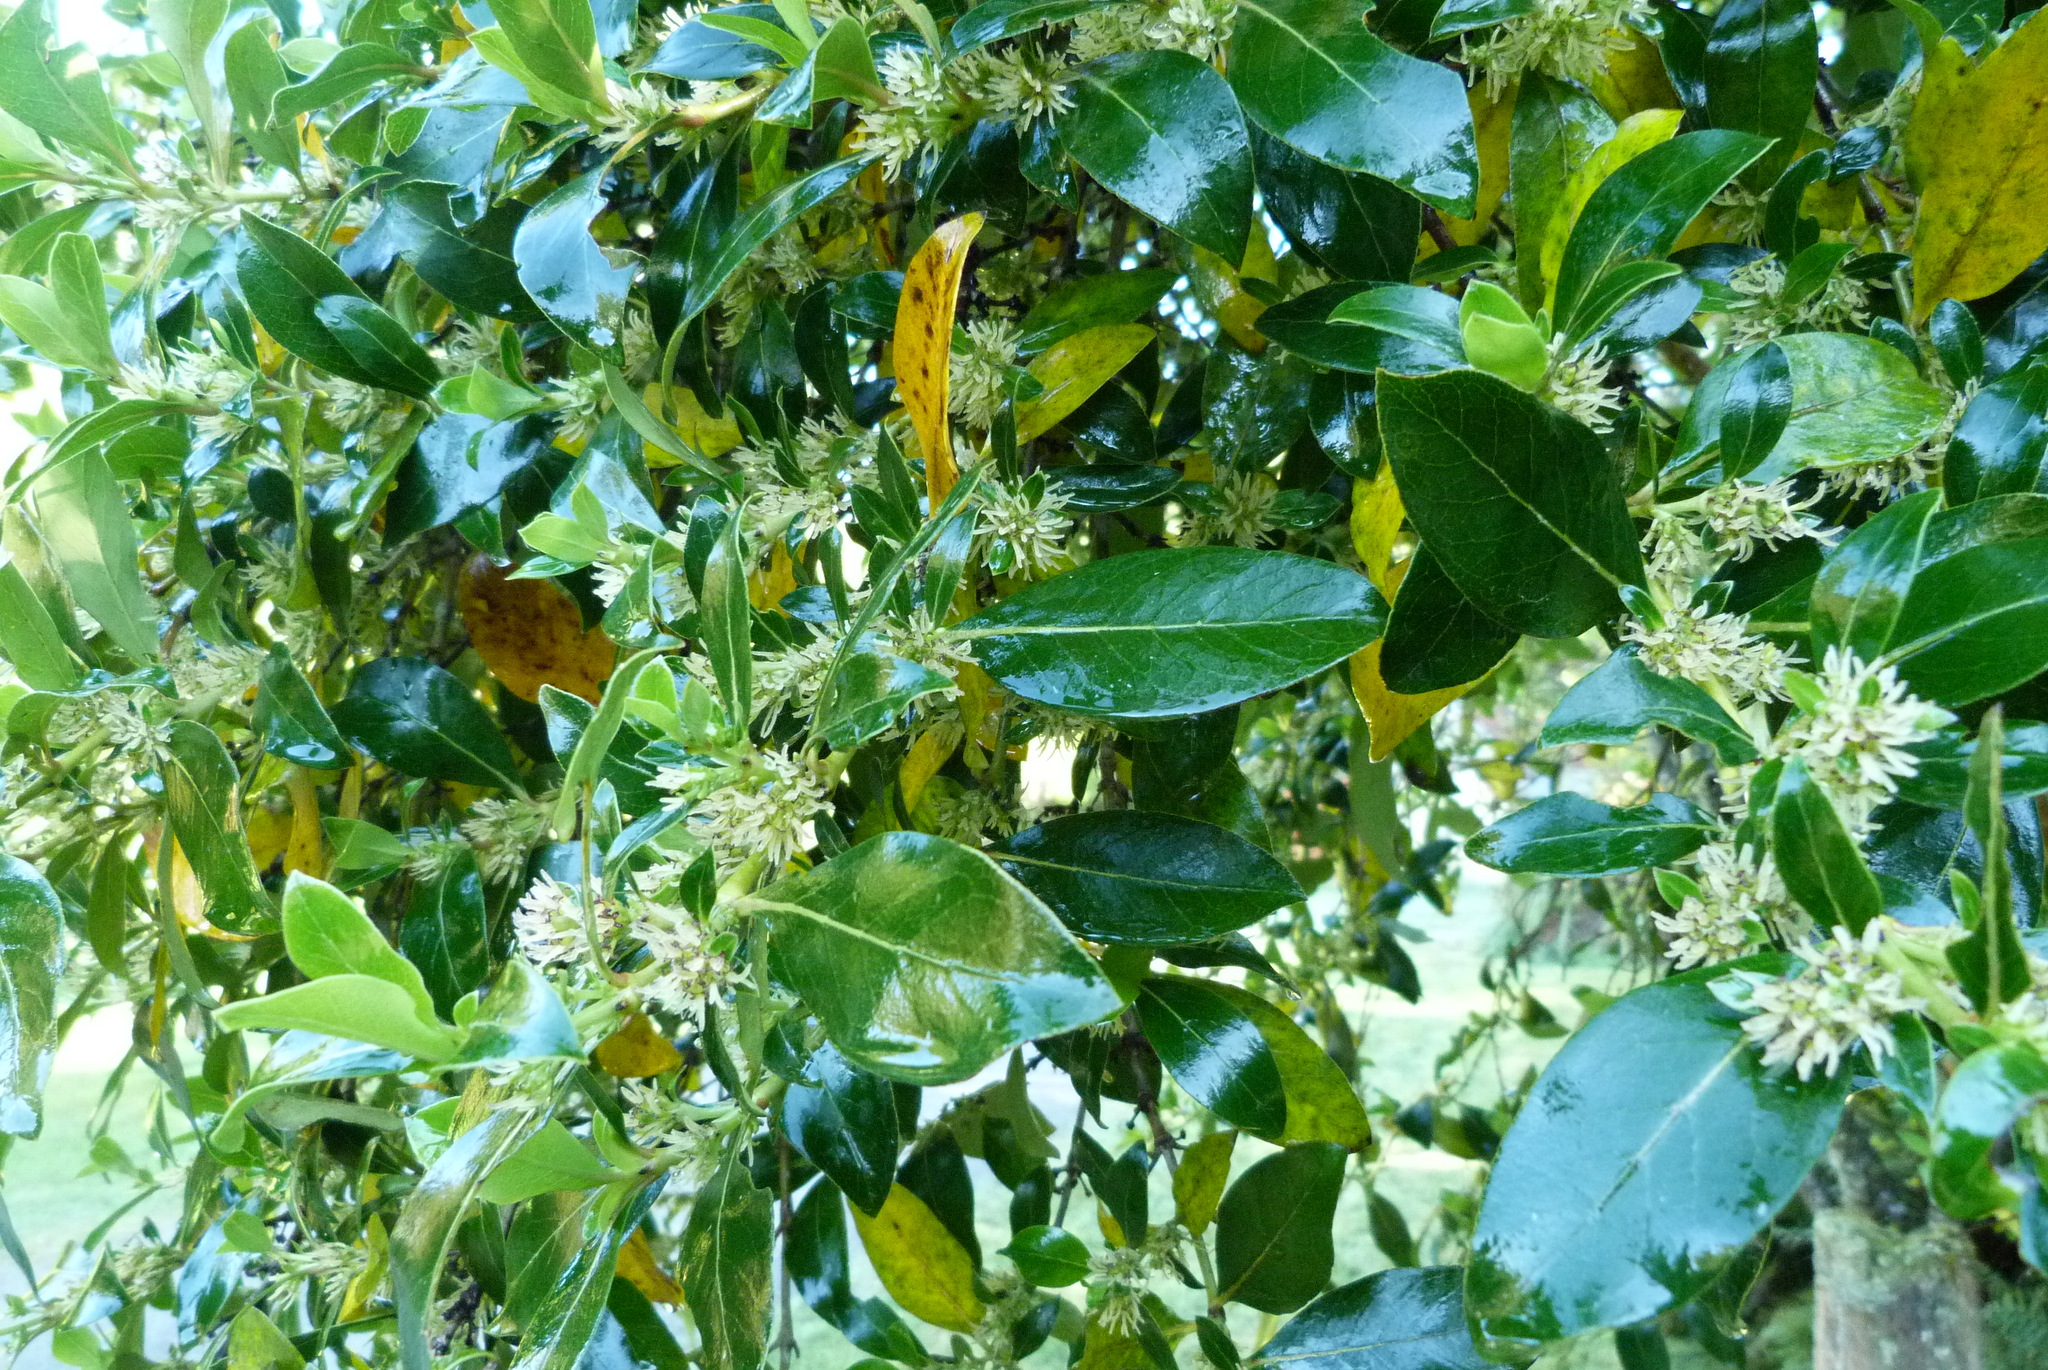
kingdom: Plantae
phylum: Tracheophyta
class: Magnoliopsida
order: Gentianales
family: Rubiaceae
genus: Coprosma
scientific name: Coprosma robusta
